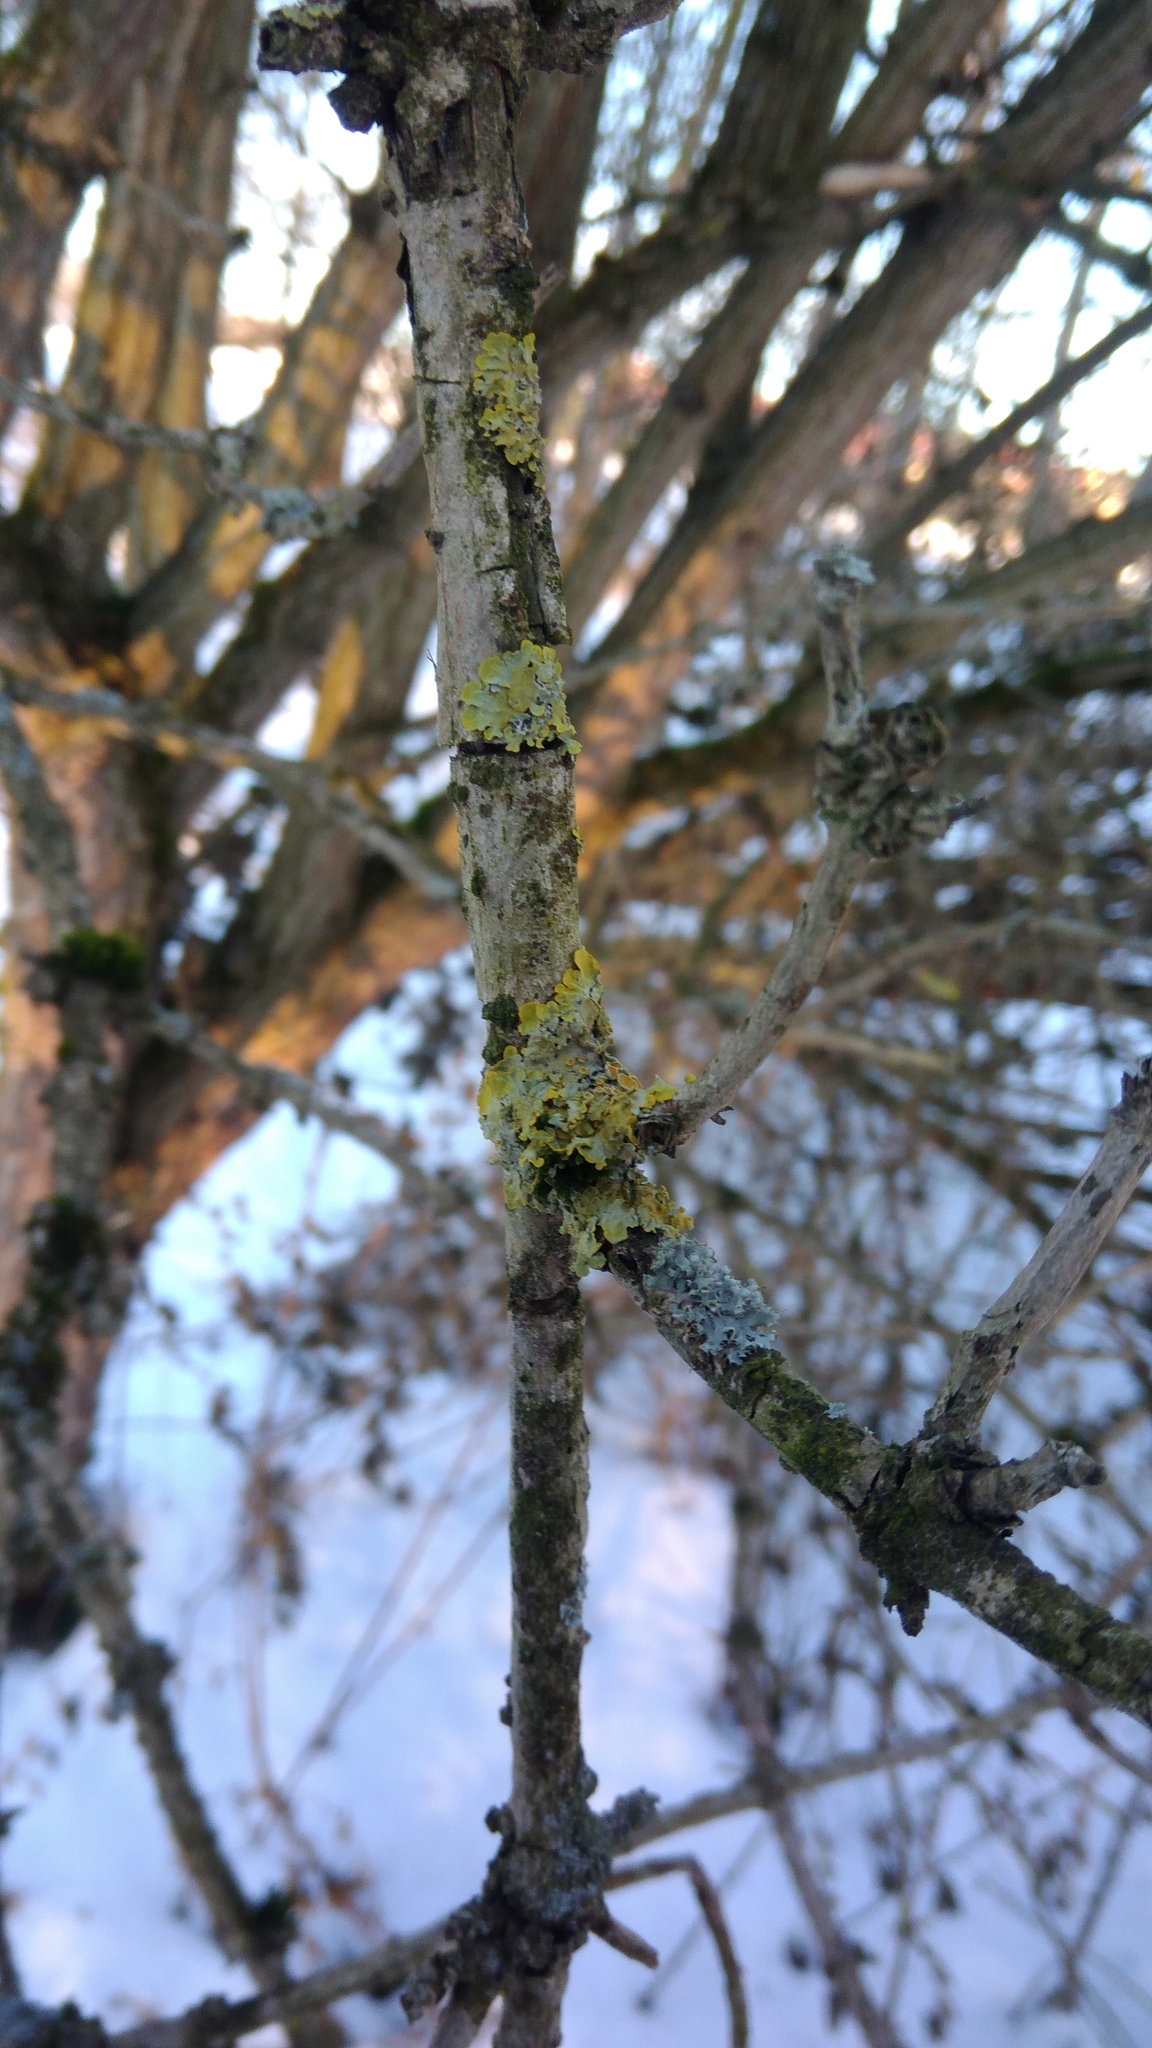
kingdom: Fungi
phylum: Ascomycota
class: Lecanoromycetes
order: Teloschistales
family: Teloschistaceae
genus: Xanthoria
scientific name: Xanthoria parietina
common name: Common orange lichen
